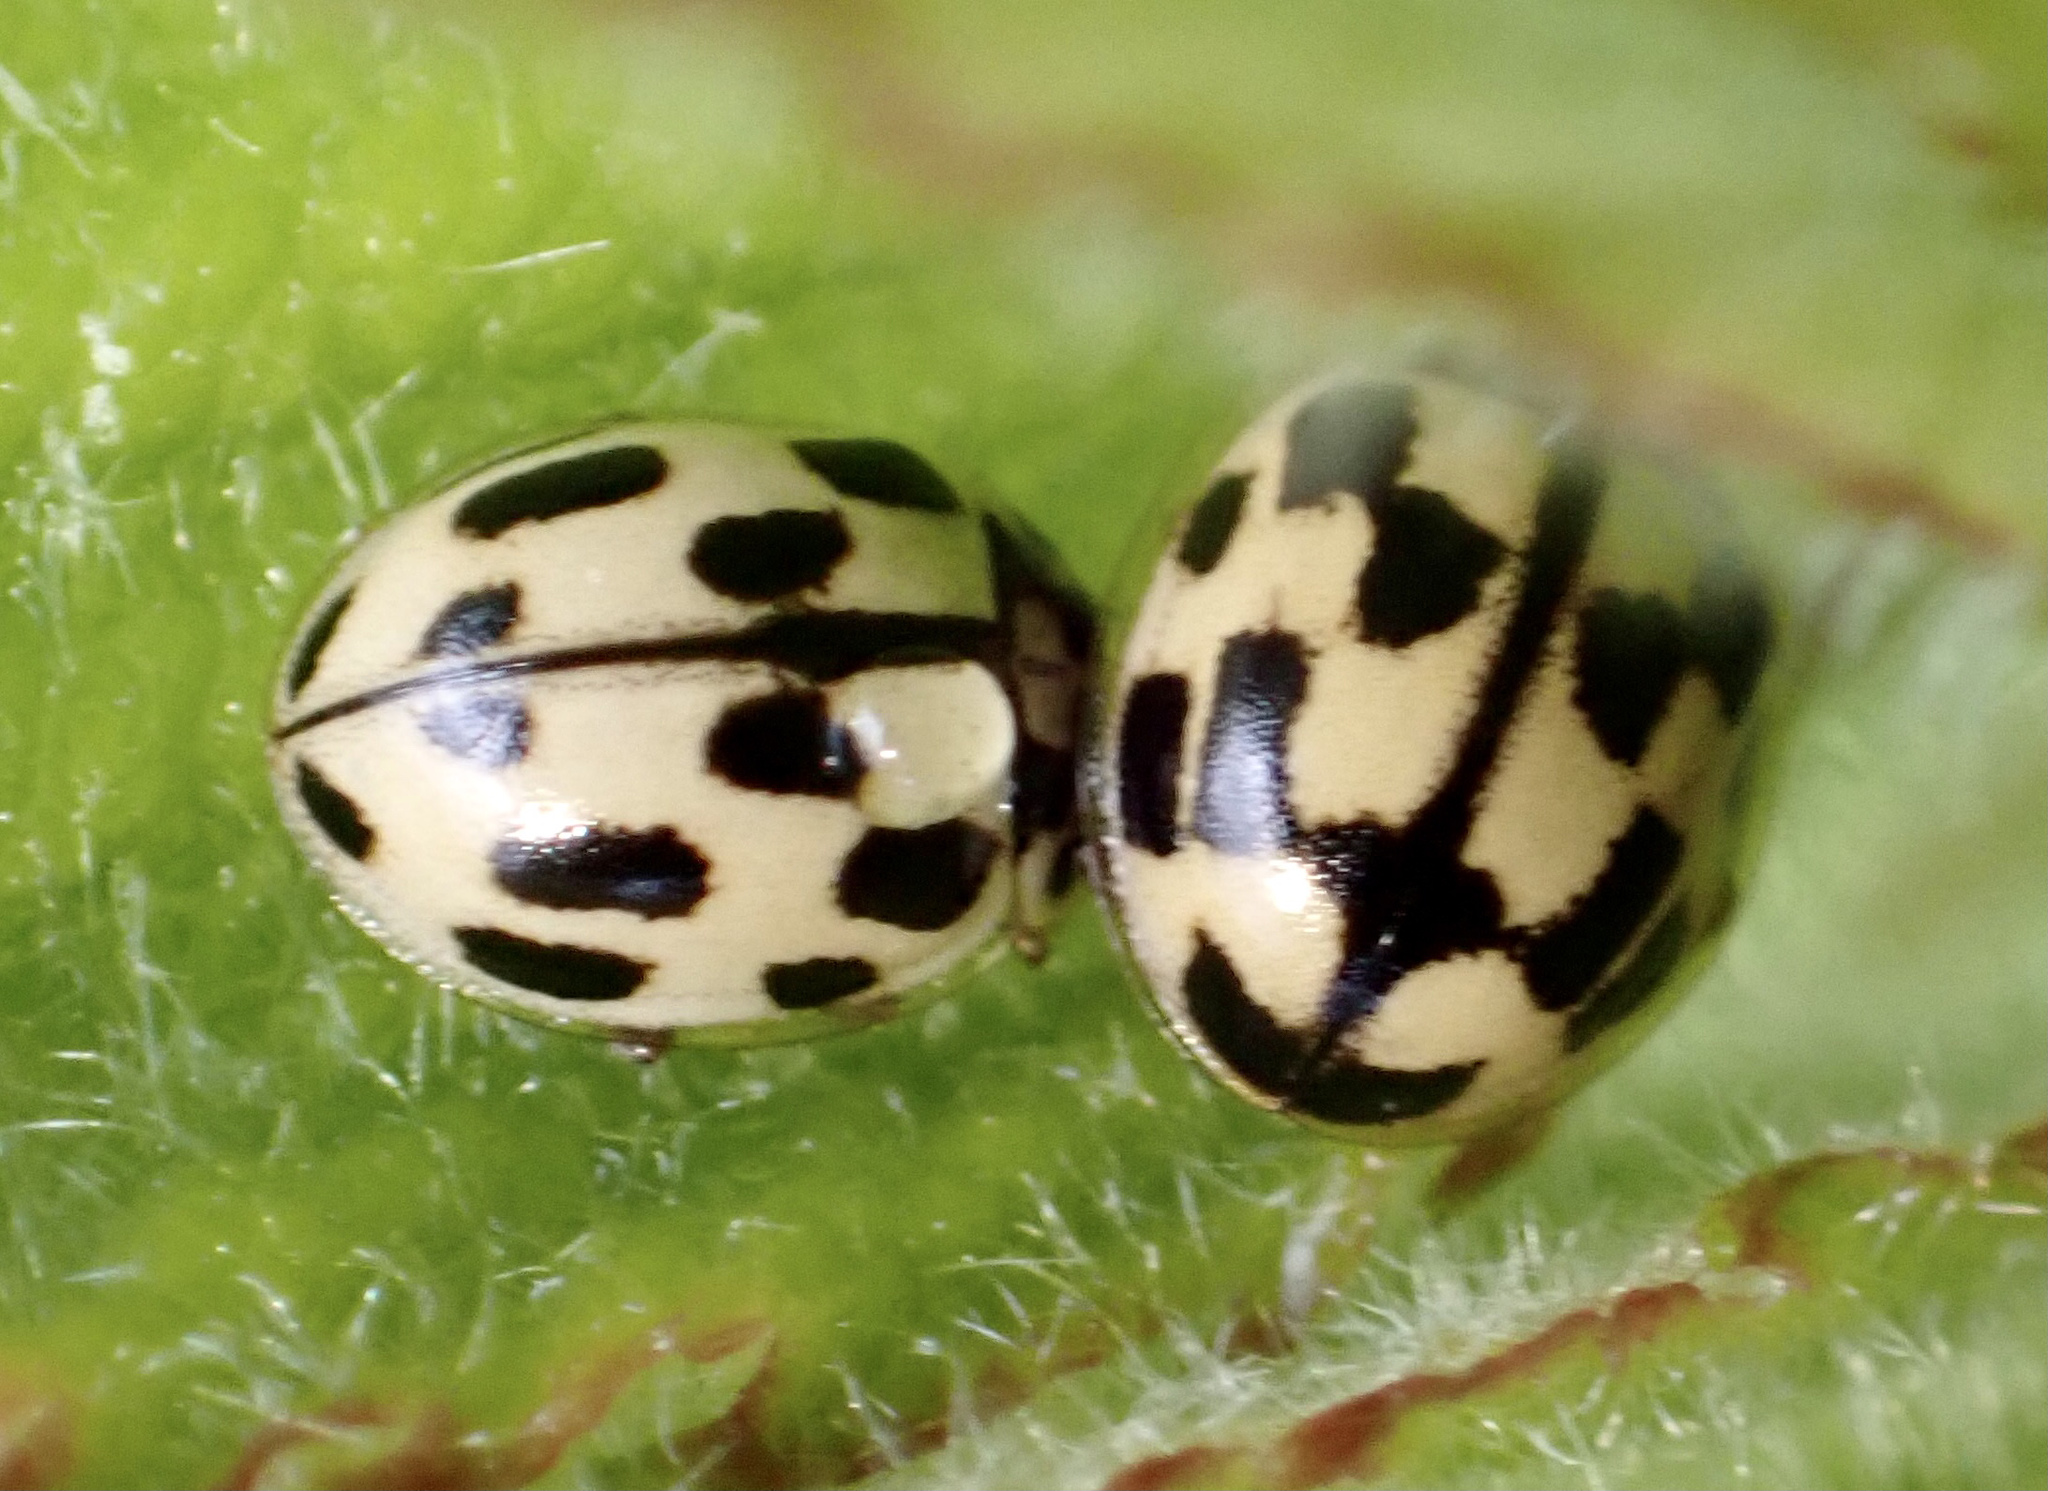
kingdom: Animalia
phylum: Arthropoda
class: Insecta
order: Coleoptera
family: Coccinellidae
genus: Propylaea
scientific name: Propylaea quatuordecimpunctata
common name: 14-spotted ladybird beetle
